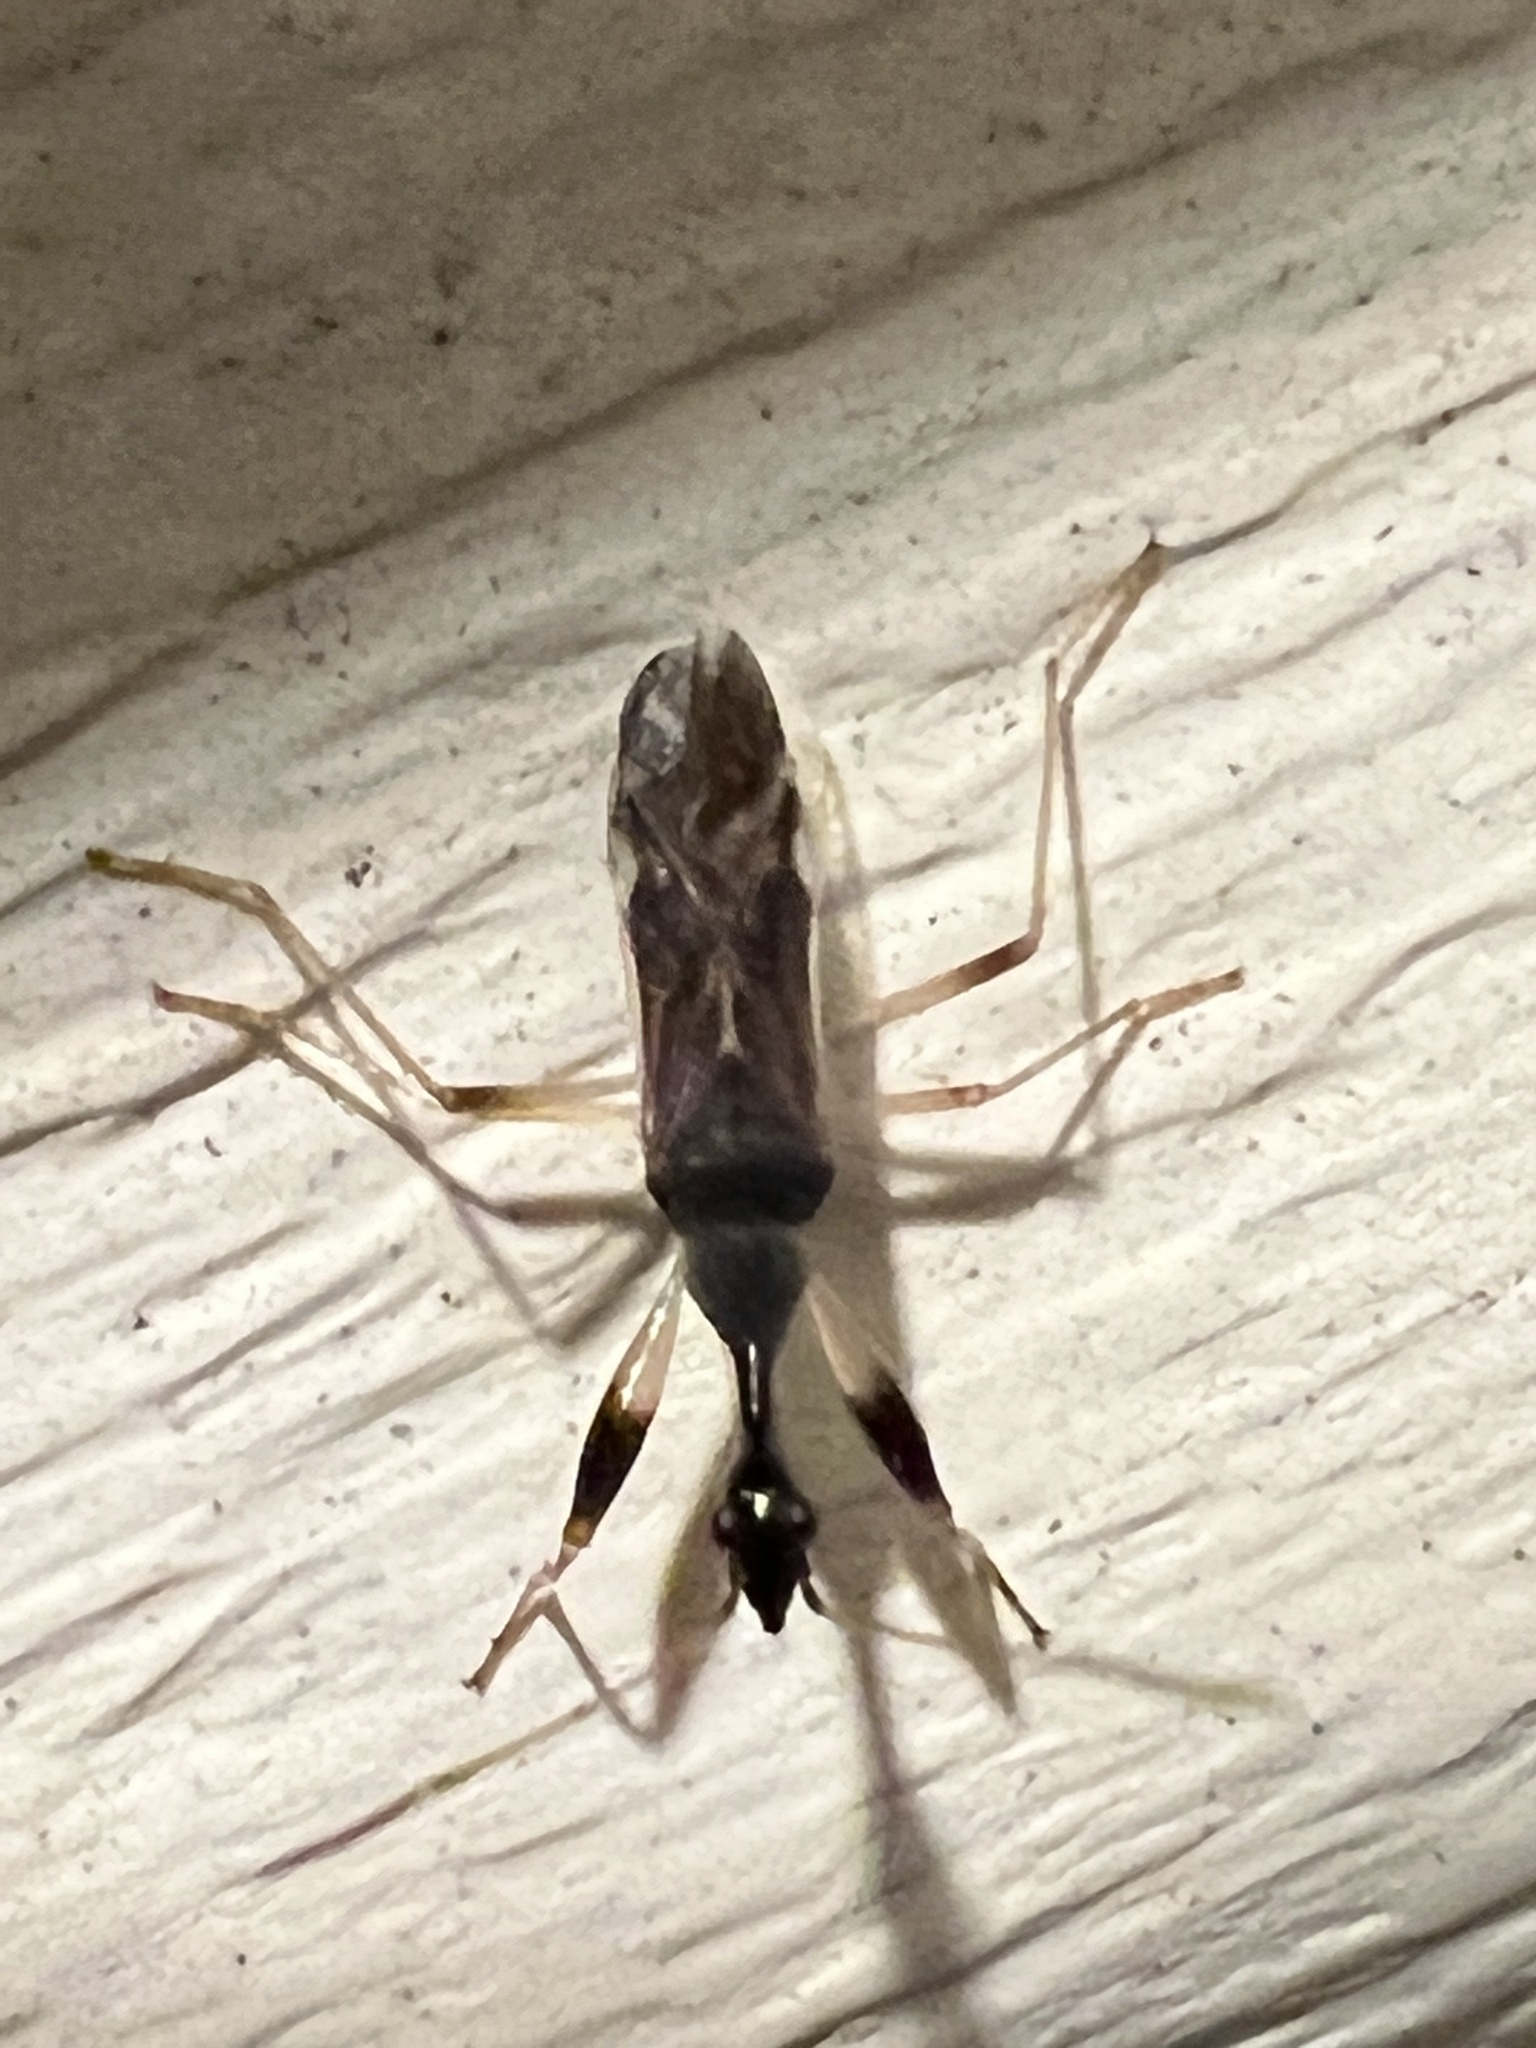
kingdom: Animalia
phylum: Arthropoda
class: Insecta
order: Hemiptera
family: Rhyparochromidae
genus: Myodocha
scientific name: Myodocha serripes
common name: Long-necked seed bug
